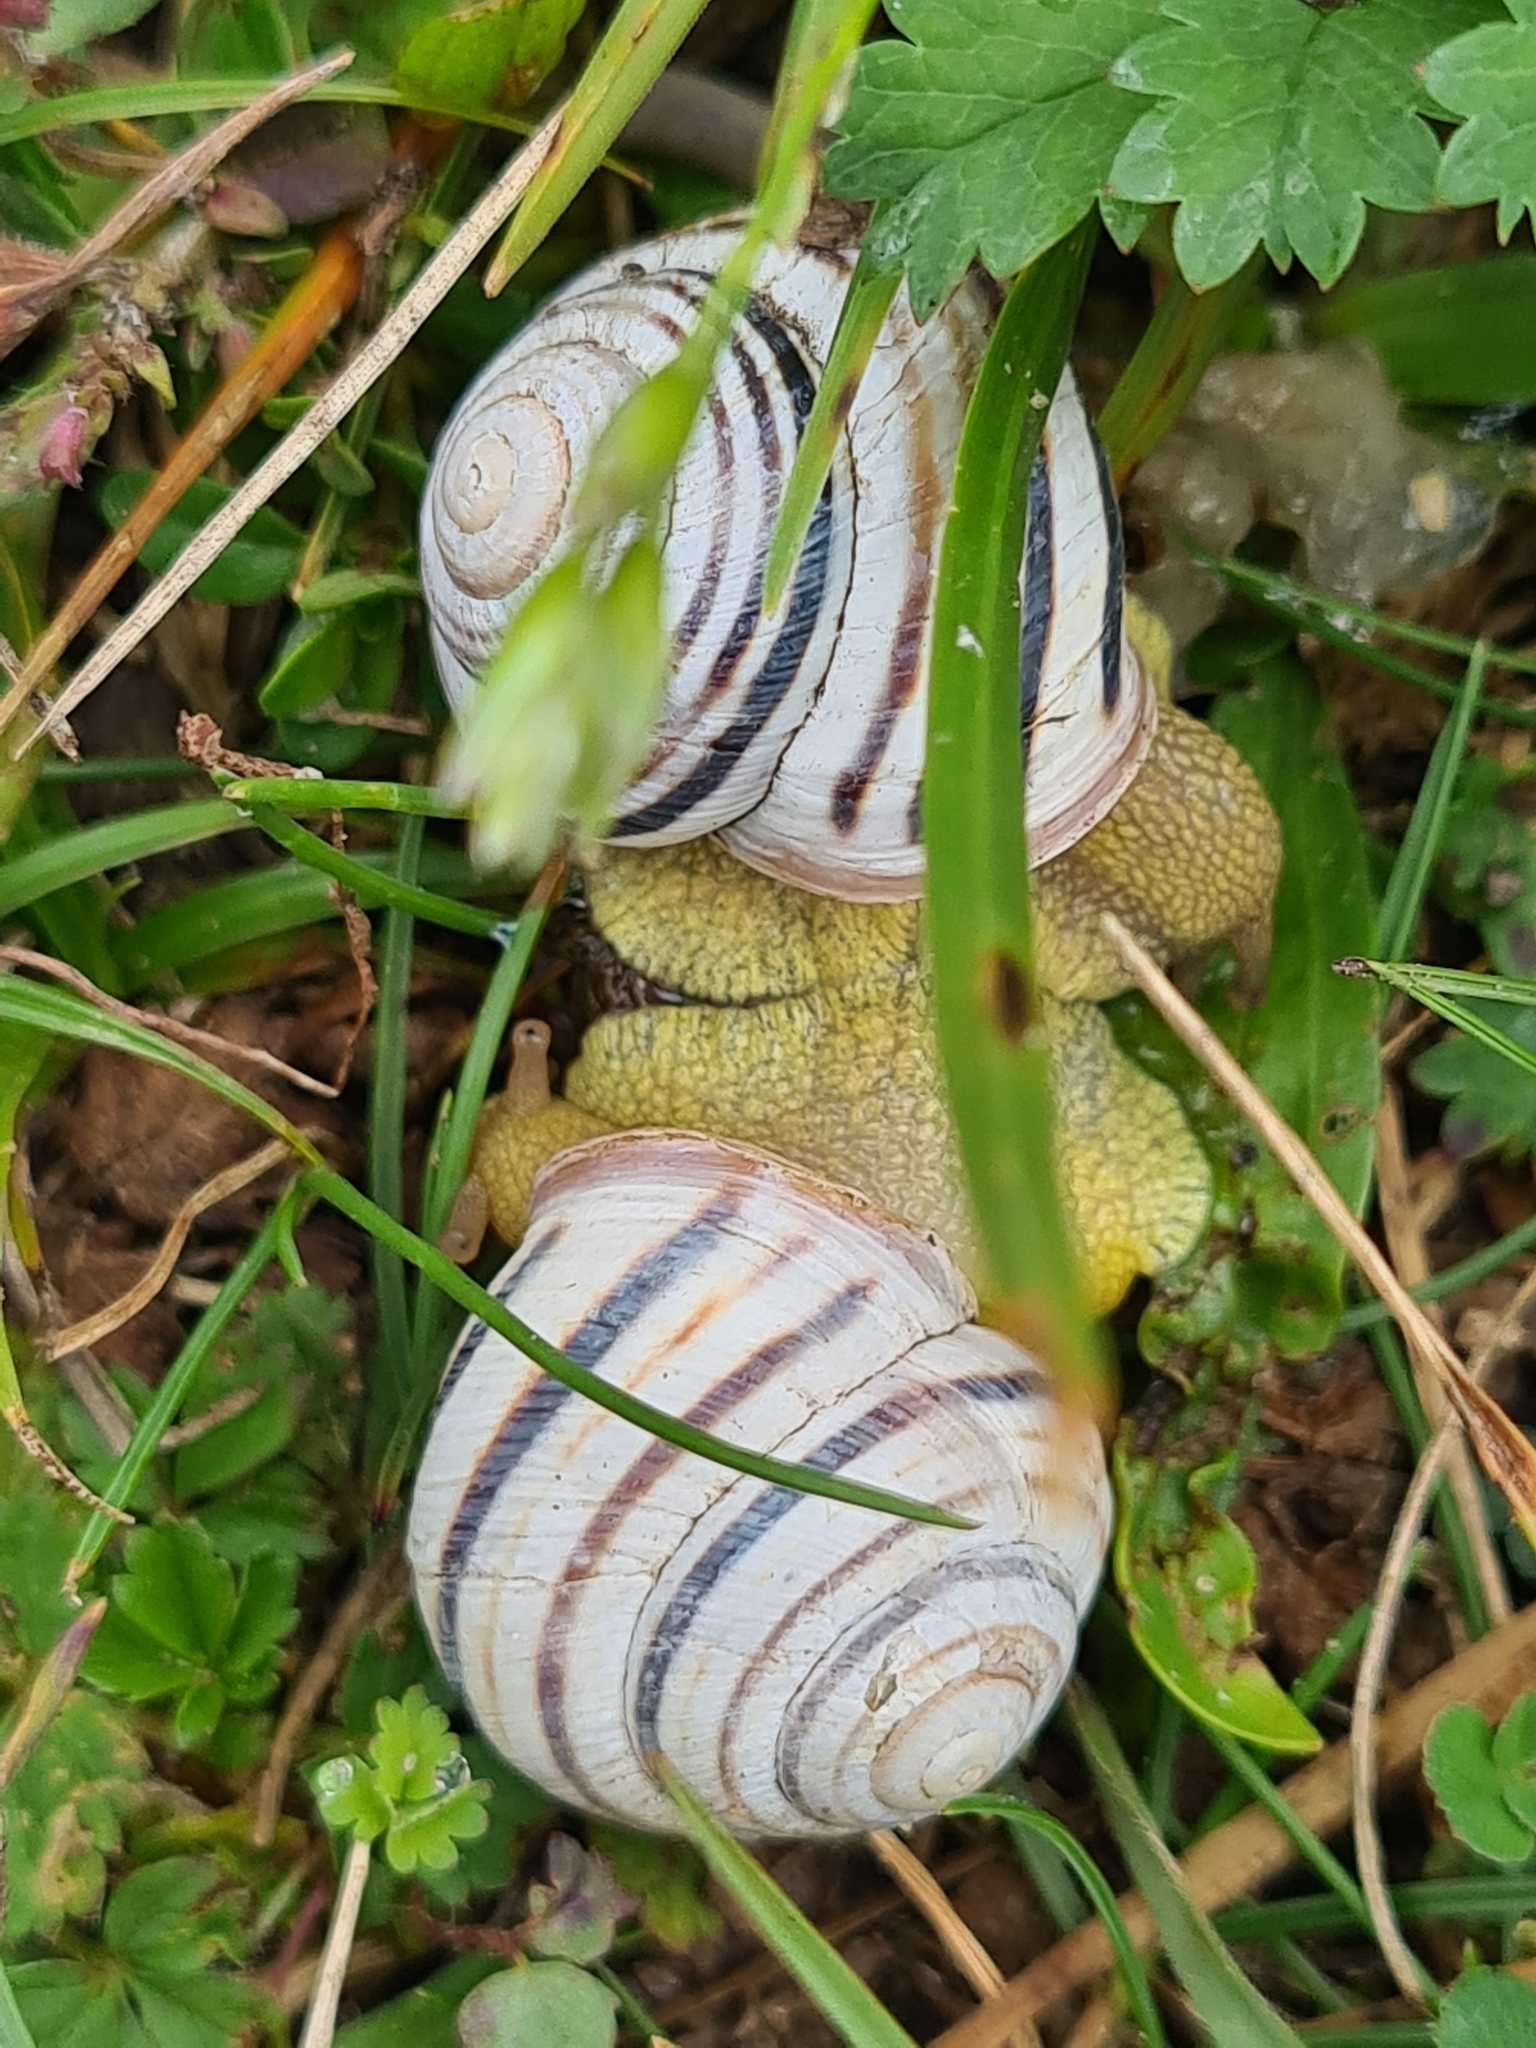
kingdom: Animalia
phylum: Mollusca
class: Gastropoda
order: Stylommatophora
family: Helicidae
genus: Caucasotachea
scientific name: Caucasotachea vindobonensis
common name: European helicid land snail
